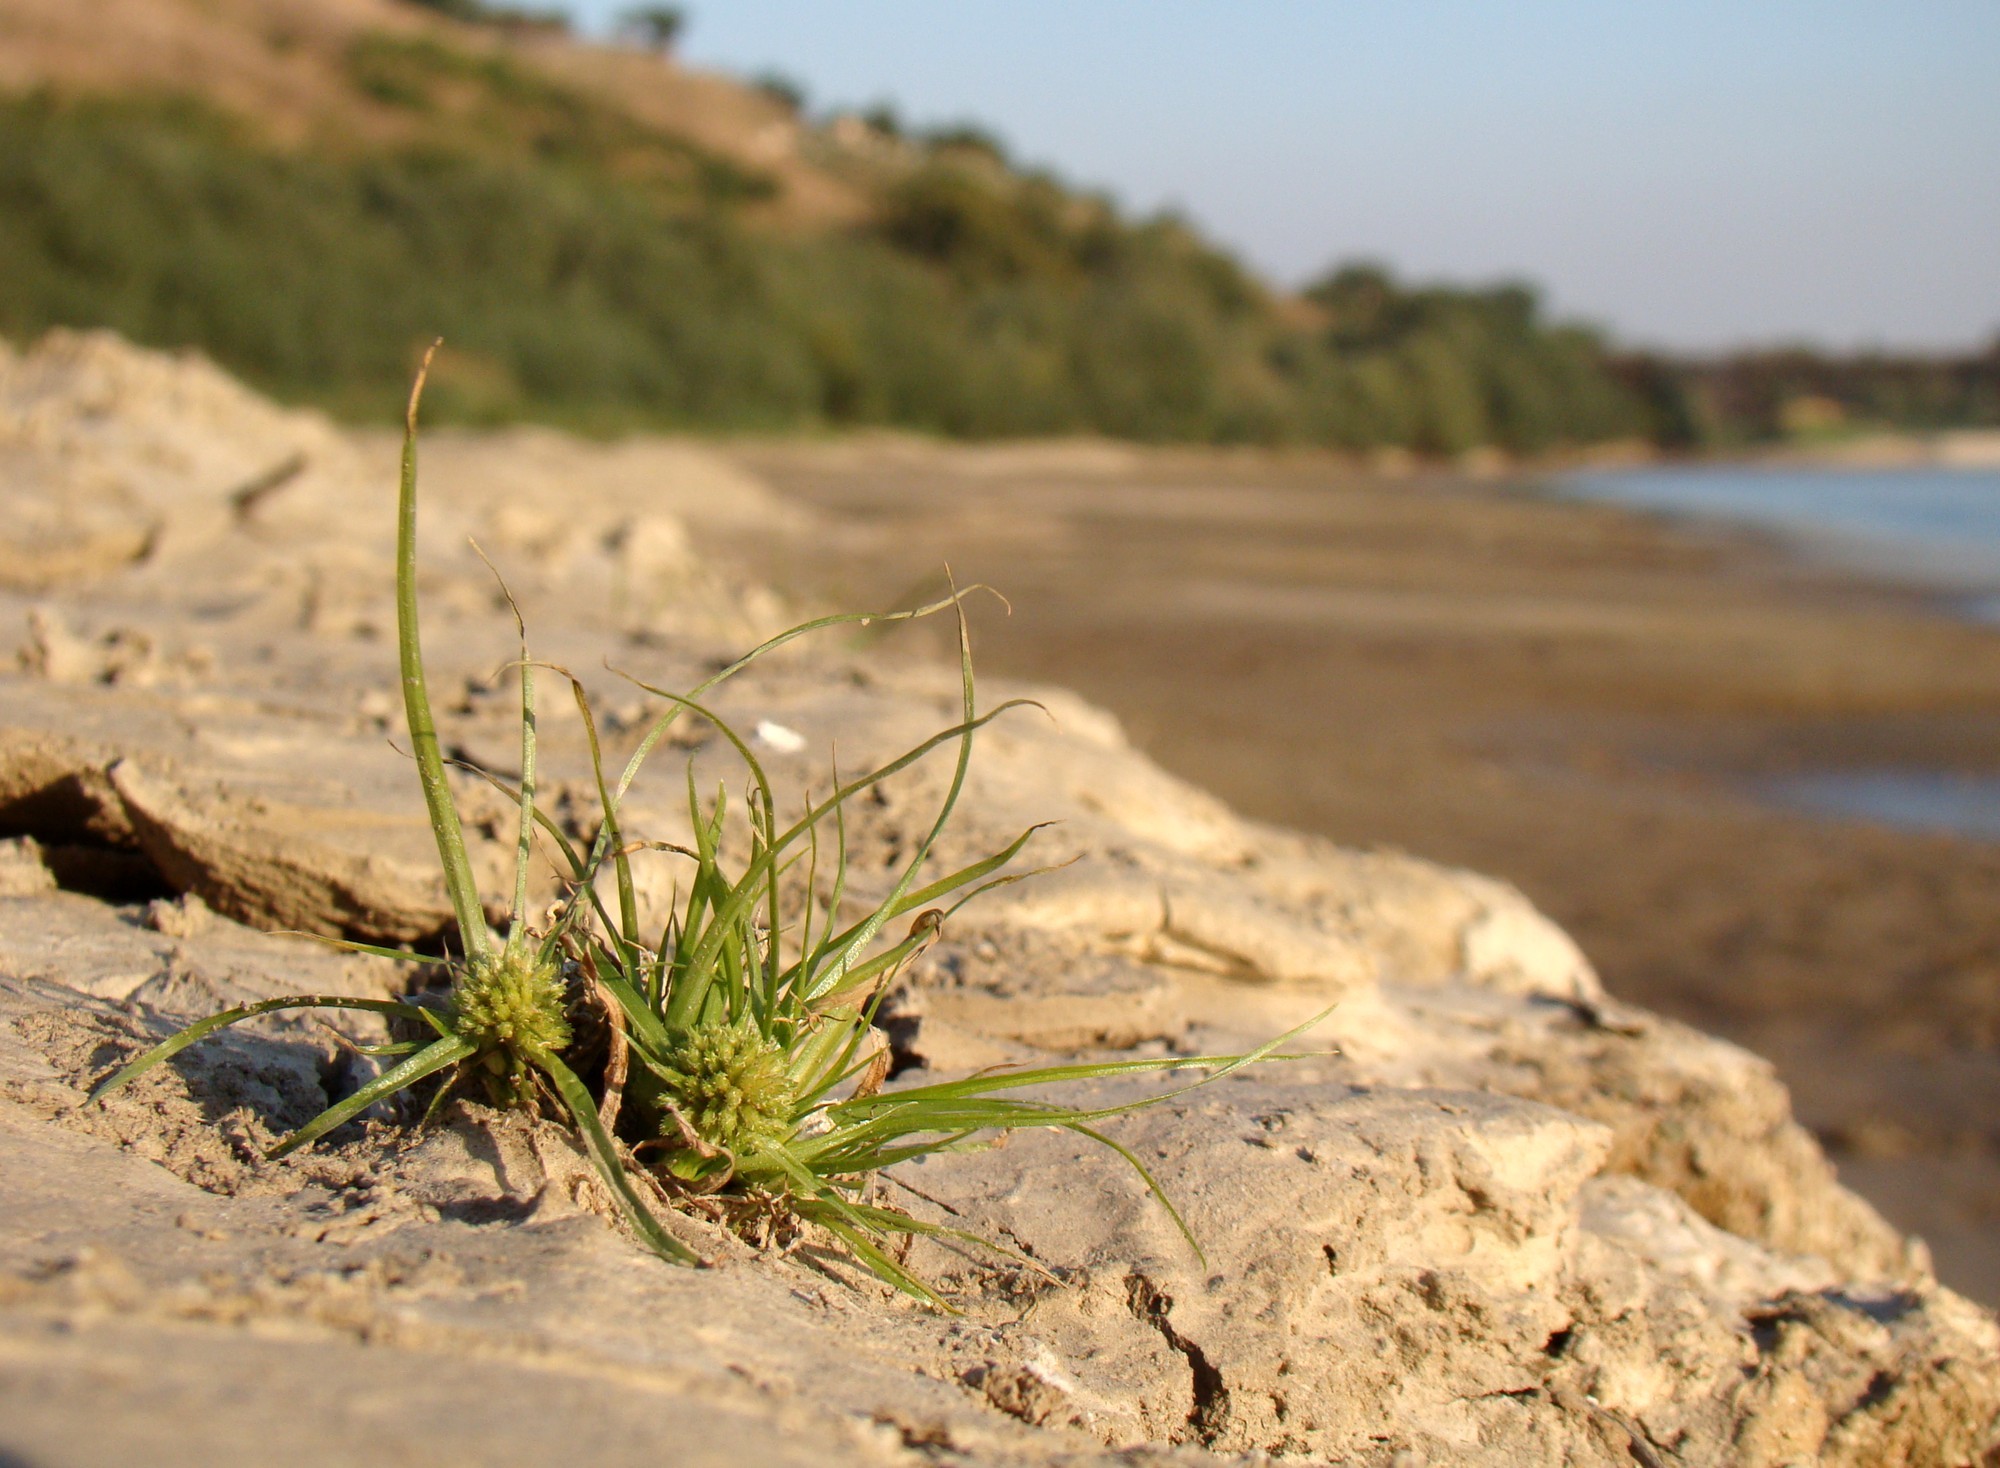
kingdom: Plantae
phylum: Tracheophyta
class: Liliopsida
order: Poales
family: Cyperaceae
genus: Cyperus
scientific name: Cyperus michelianus
